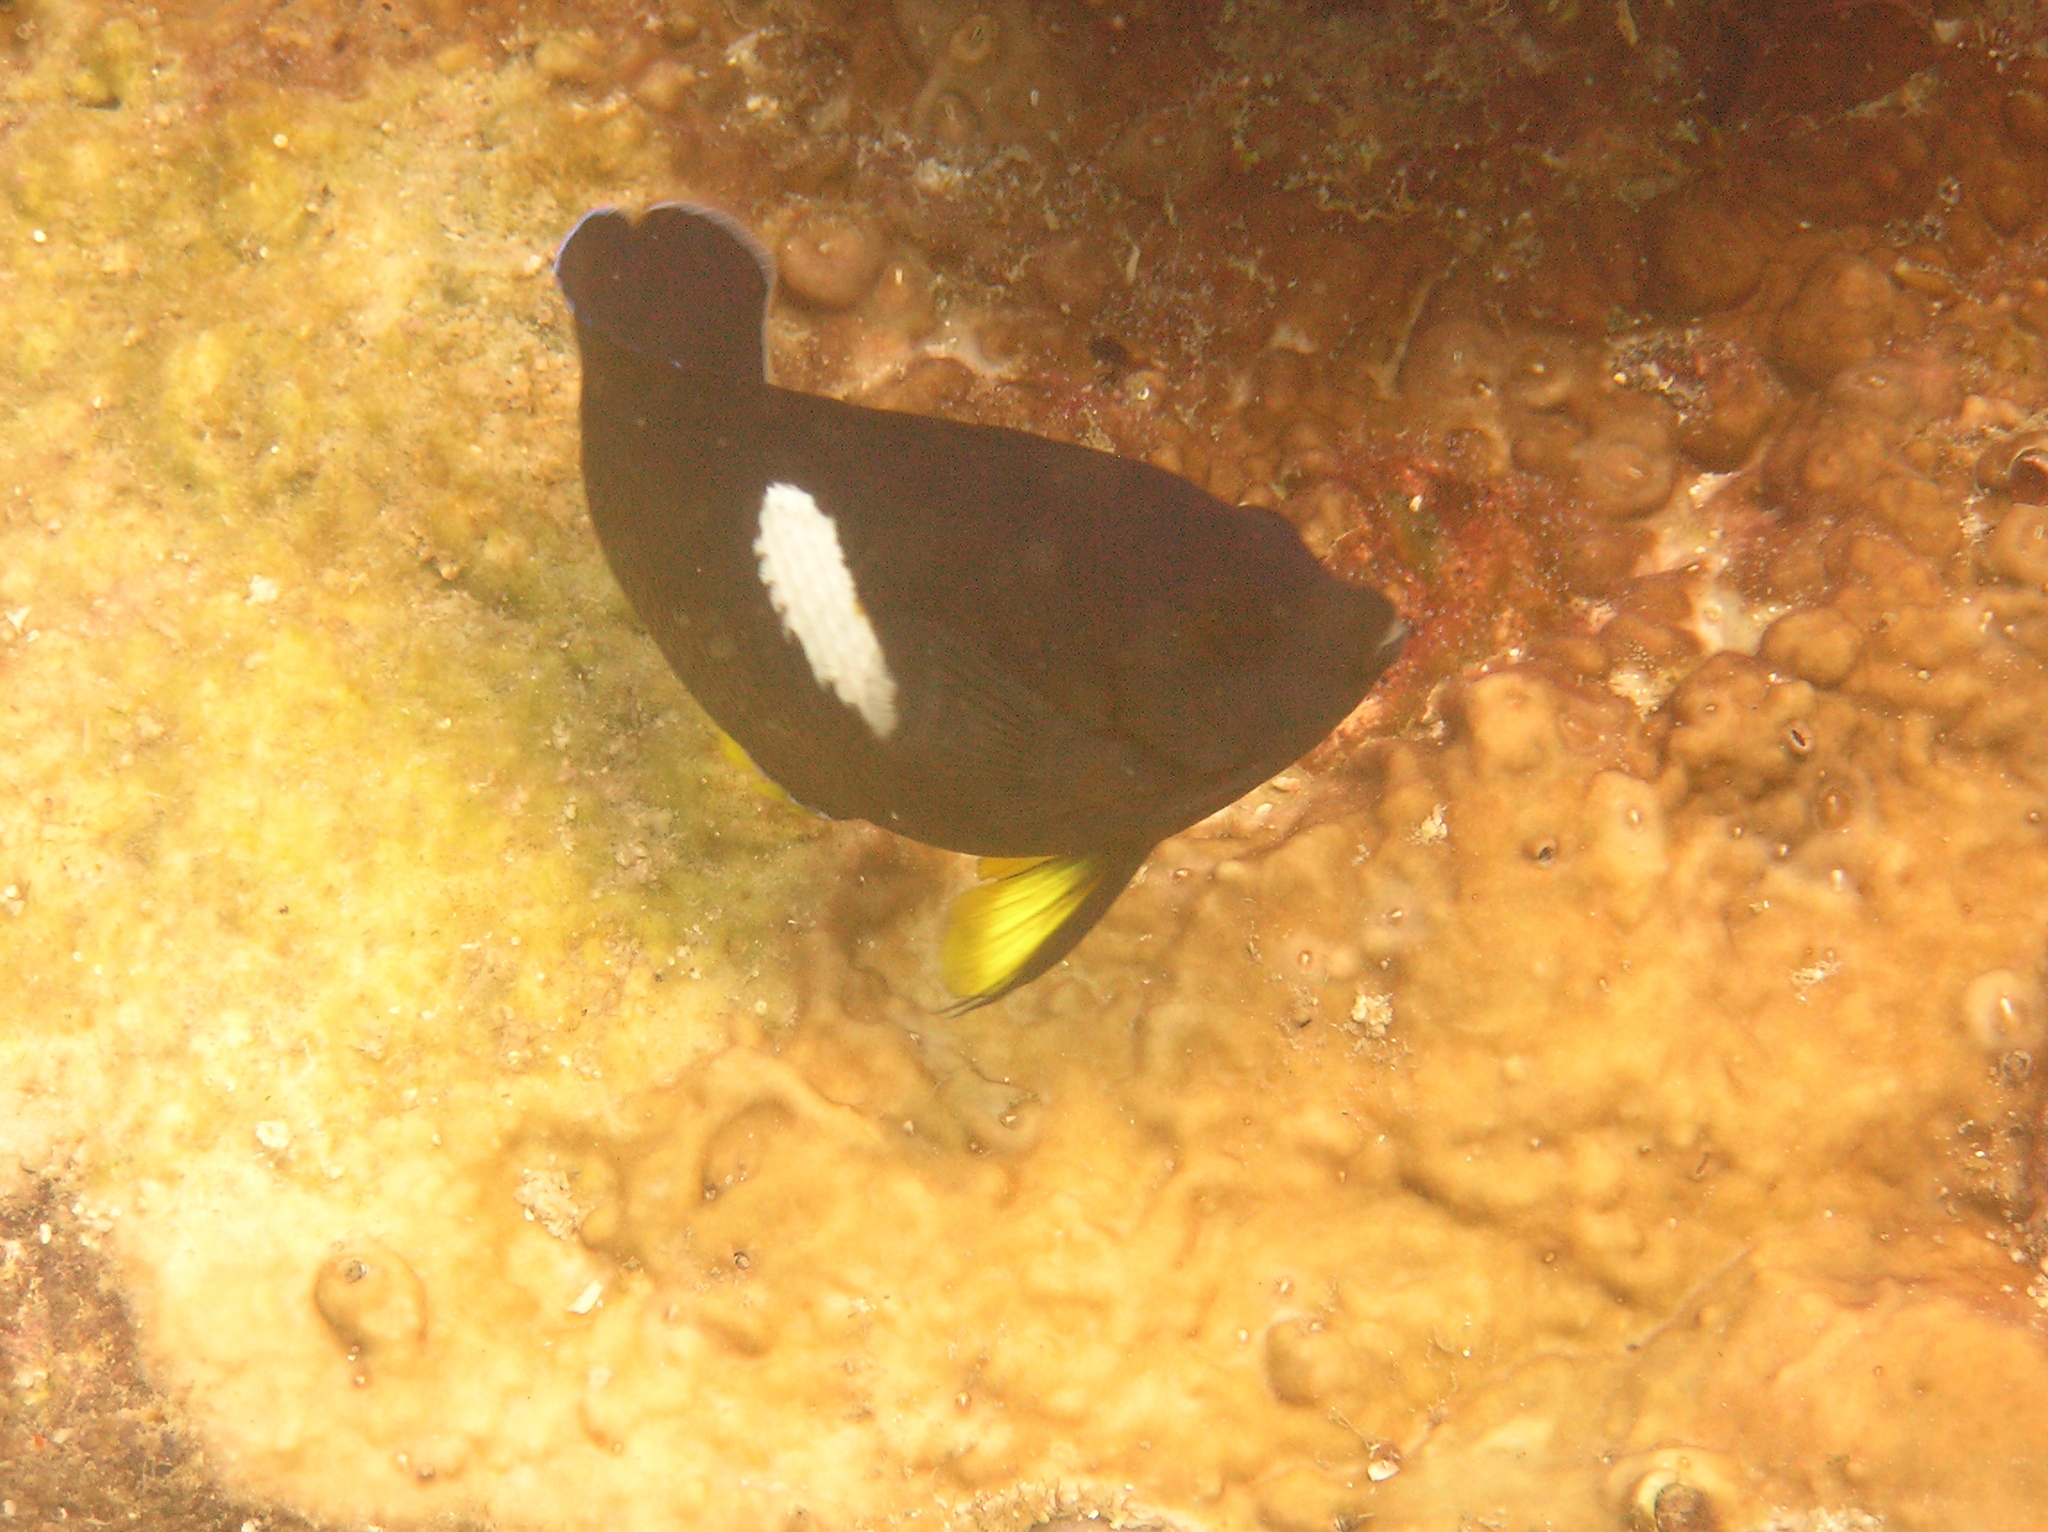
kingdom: Animalia
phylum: Chordata
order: Perciformes
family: Pomacanthidae
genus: Centropyge
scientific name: Centropyge tibicen
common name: Keyhole angelfish
